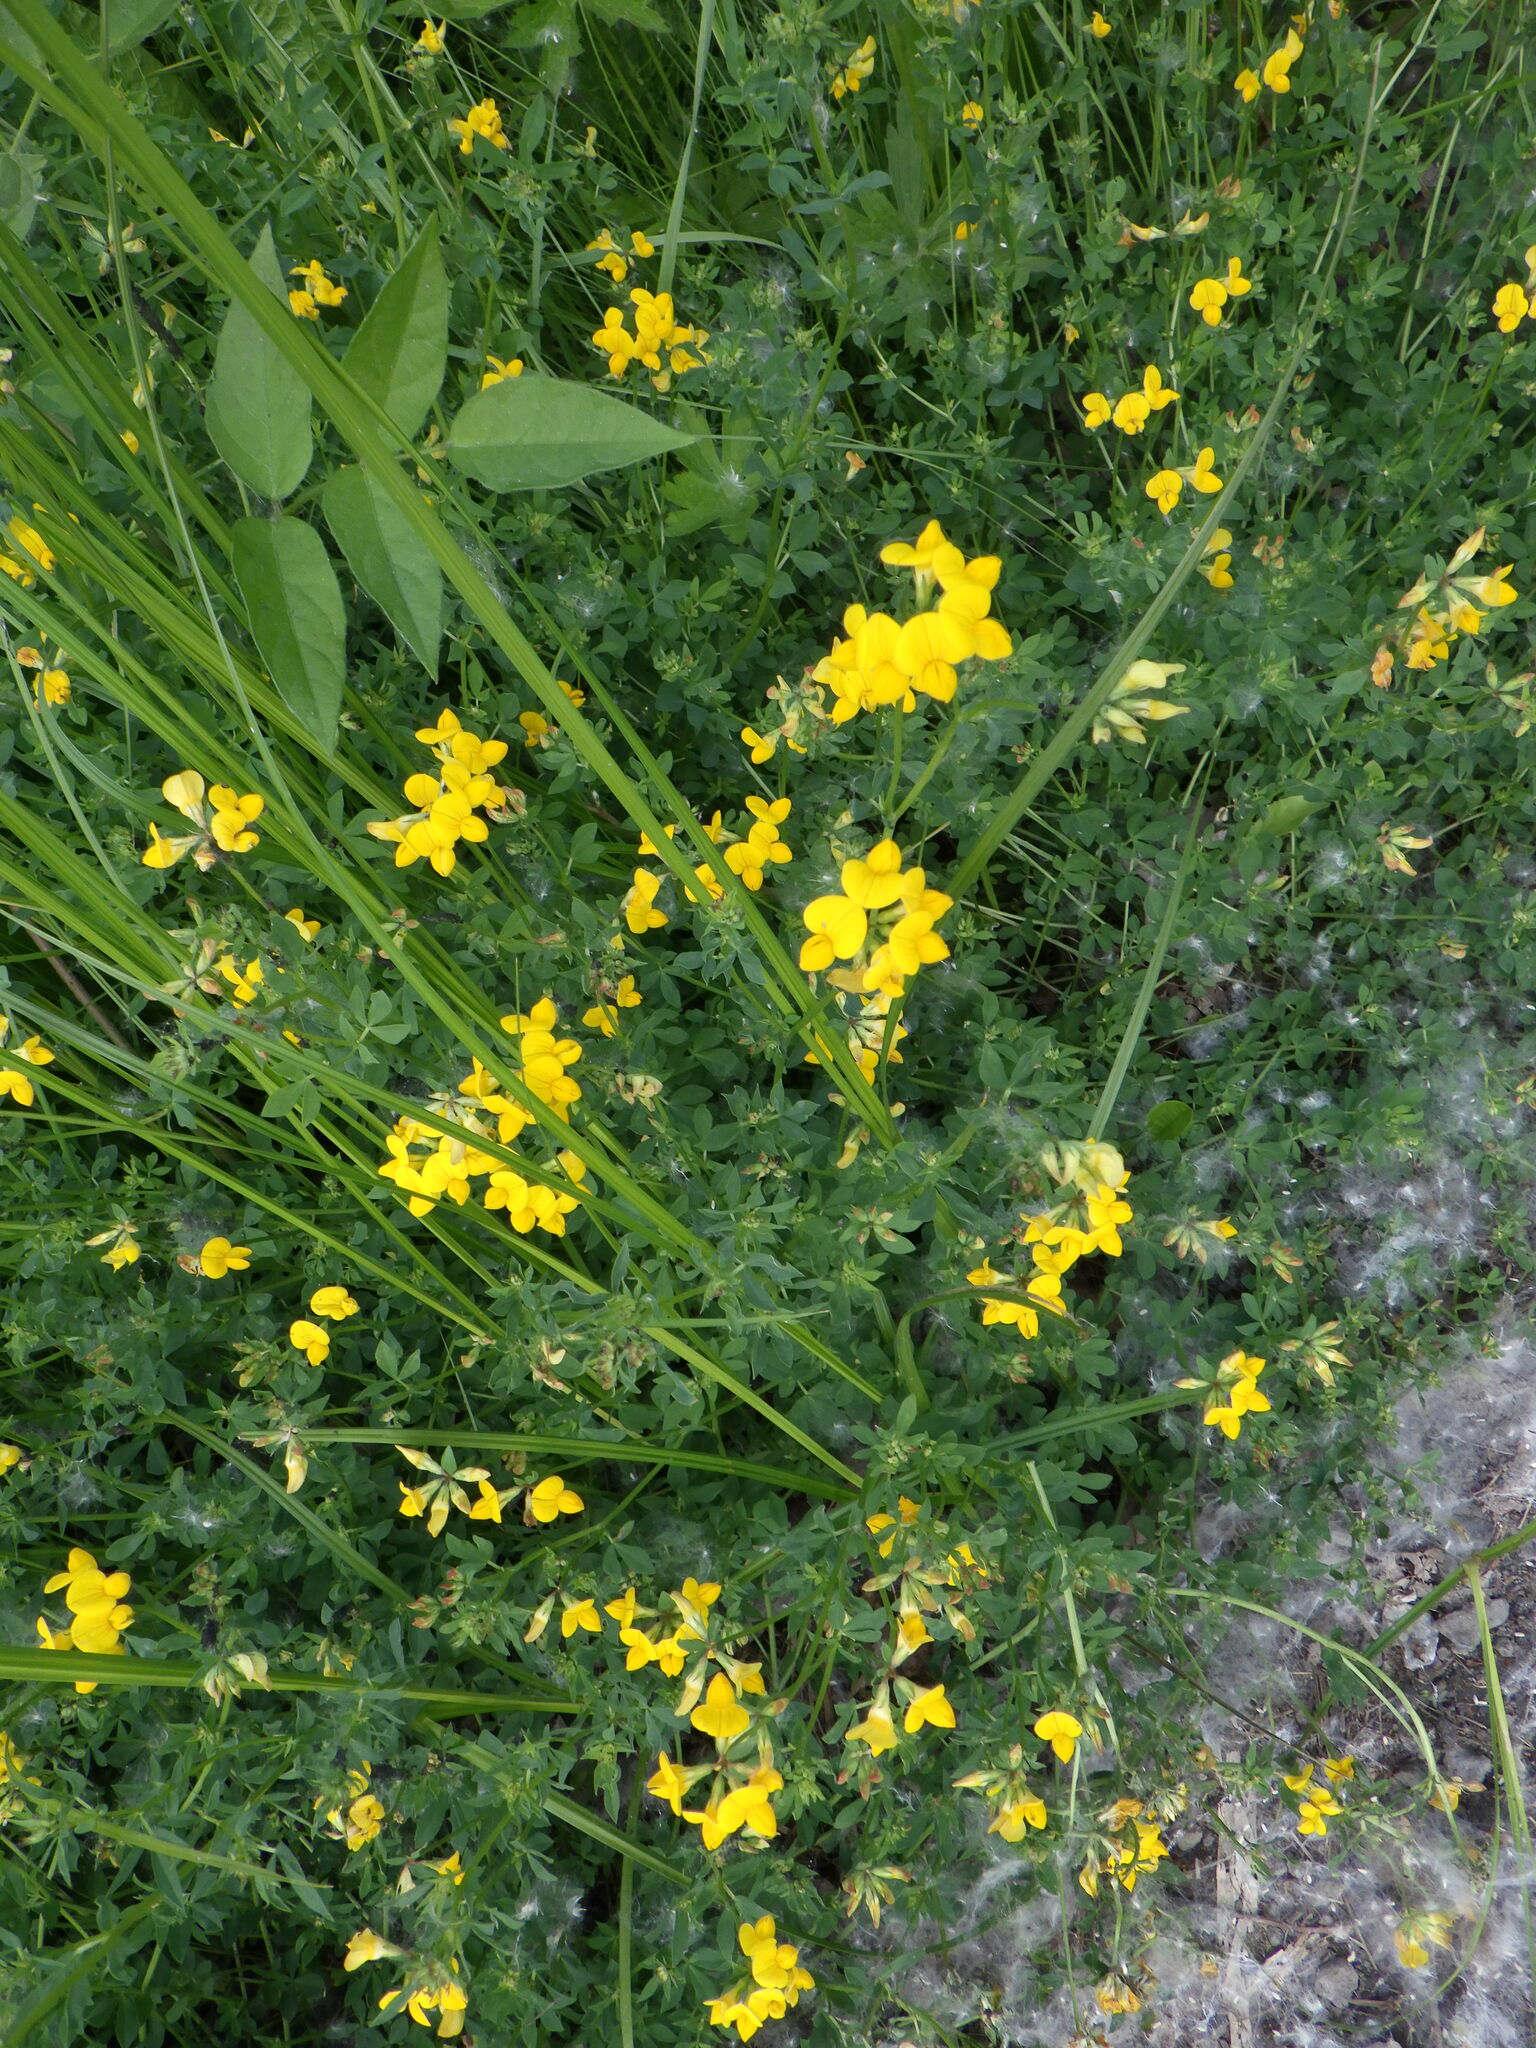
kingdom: Plantae
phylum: Tracheophyta
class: Magnoliopsida
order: Fabales
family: Fabaceae
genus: Lotus
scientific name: Lotus corniculatus
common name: Common bird's-foot-trefoil
